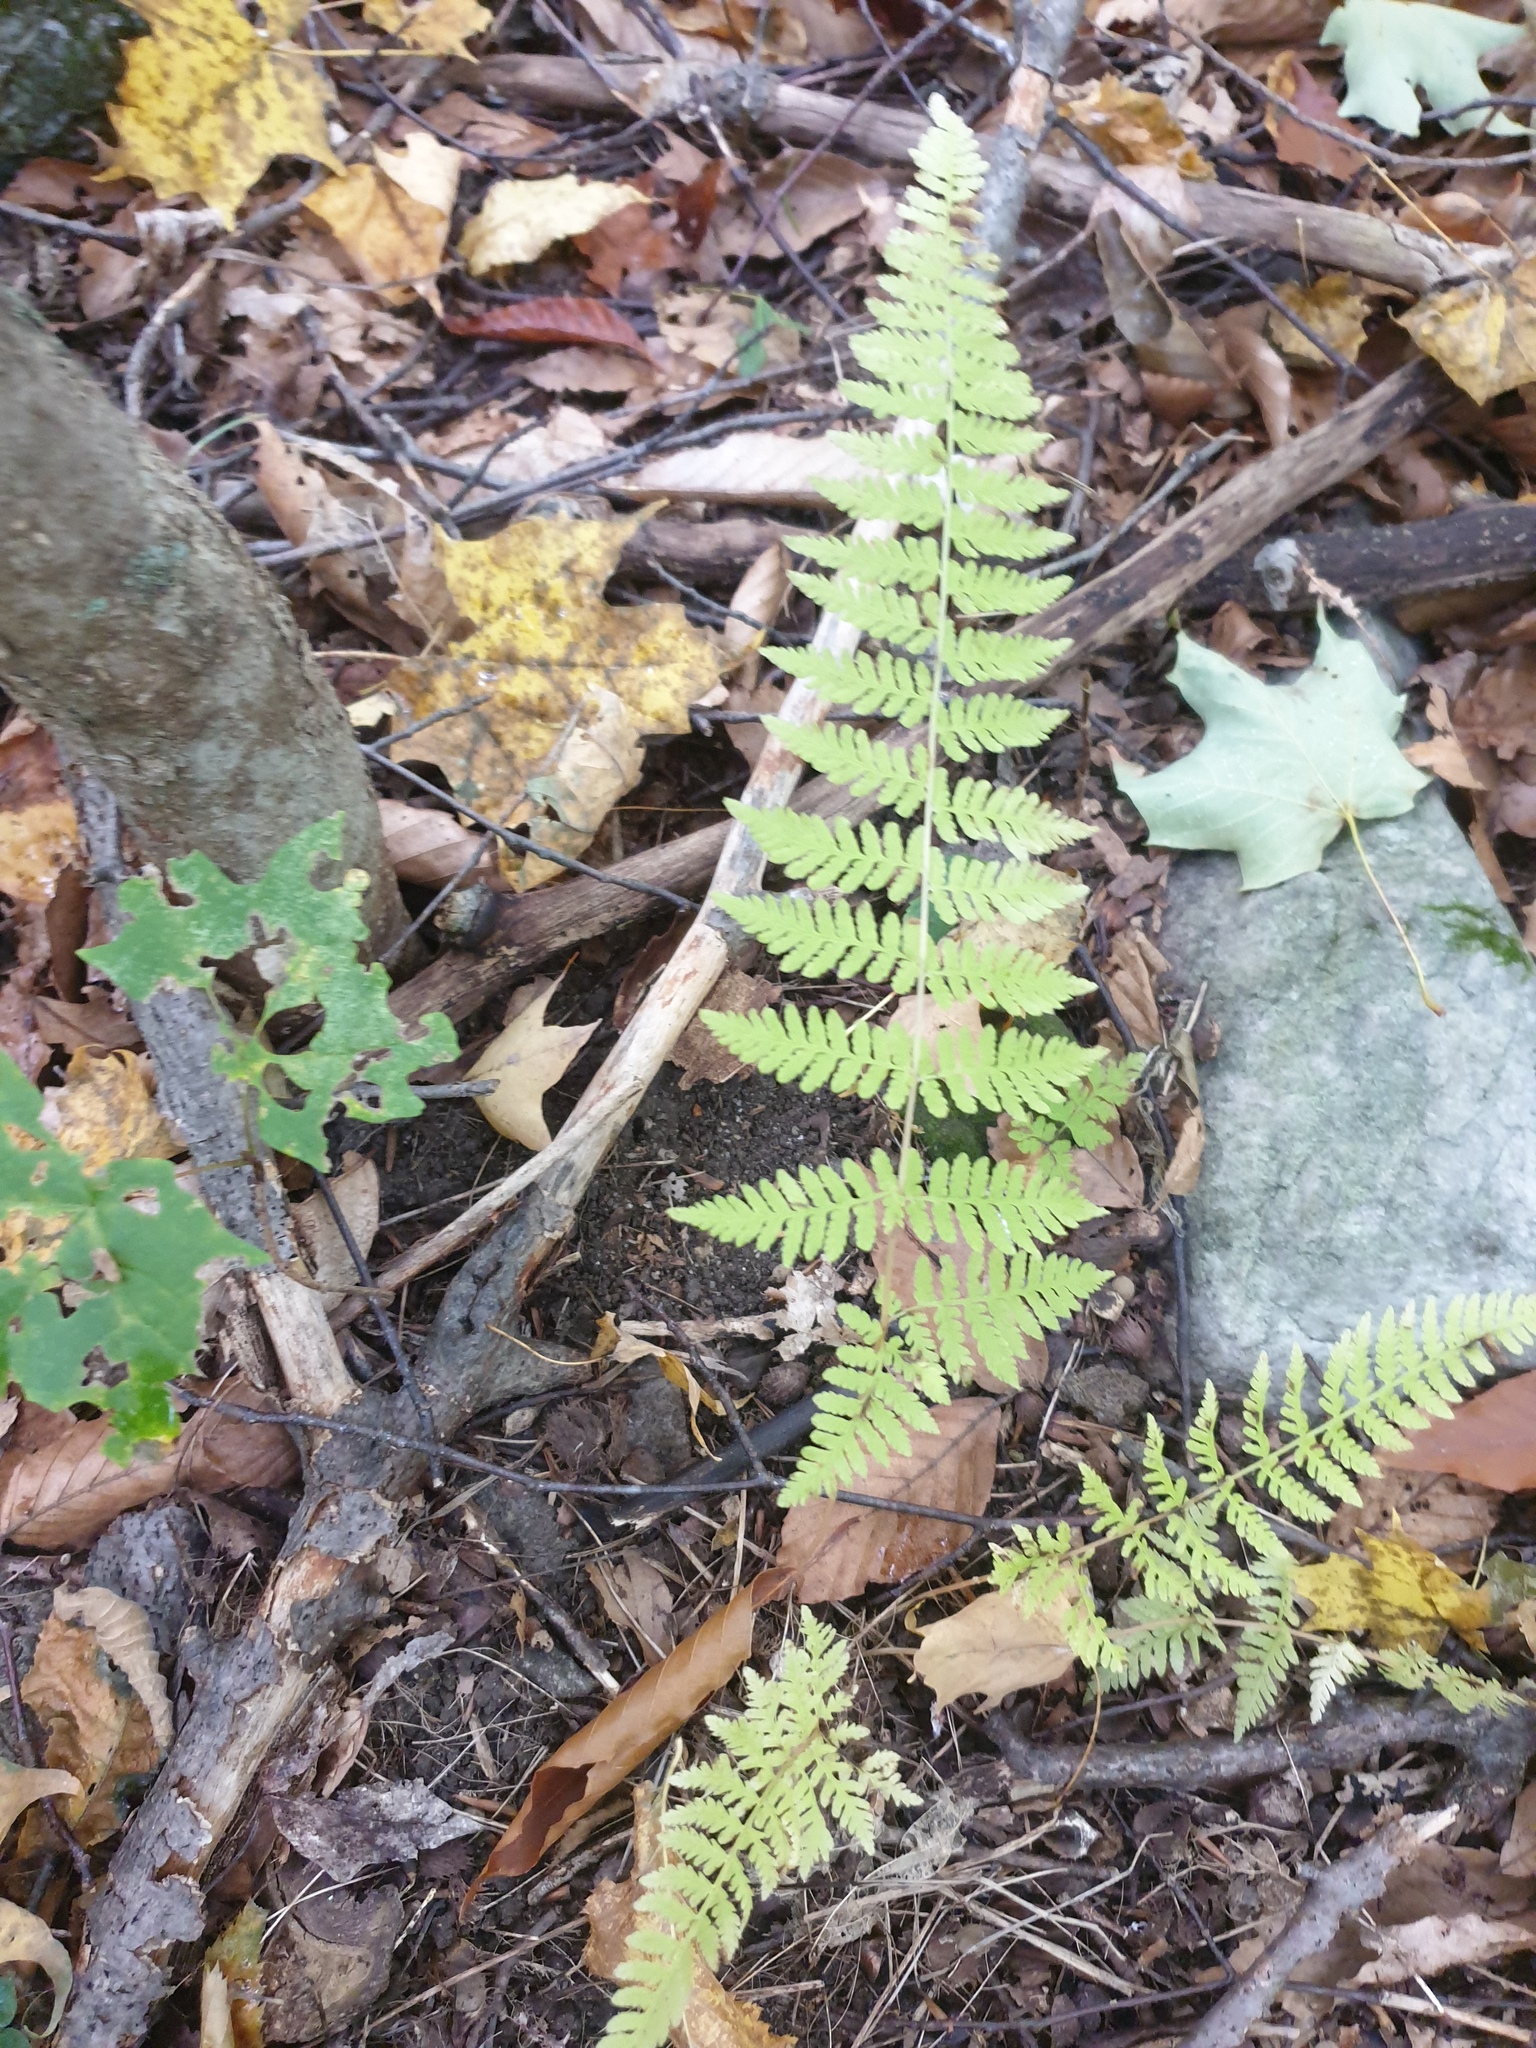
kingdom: Plantae
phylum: Tracheophyta
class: Polypodiopsida
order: Polypodiales
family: Cystopteridaceae
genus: Cystopteris
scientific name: Cystopteris bulbifera
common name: Bulblet bladder fern
